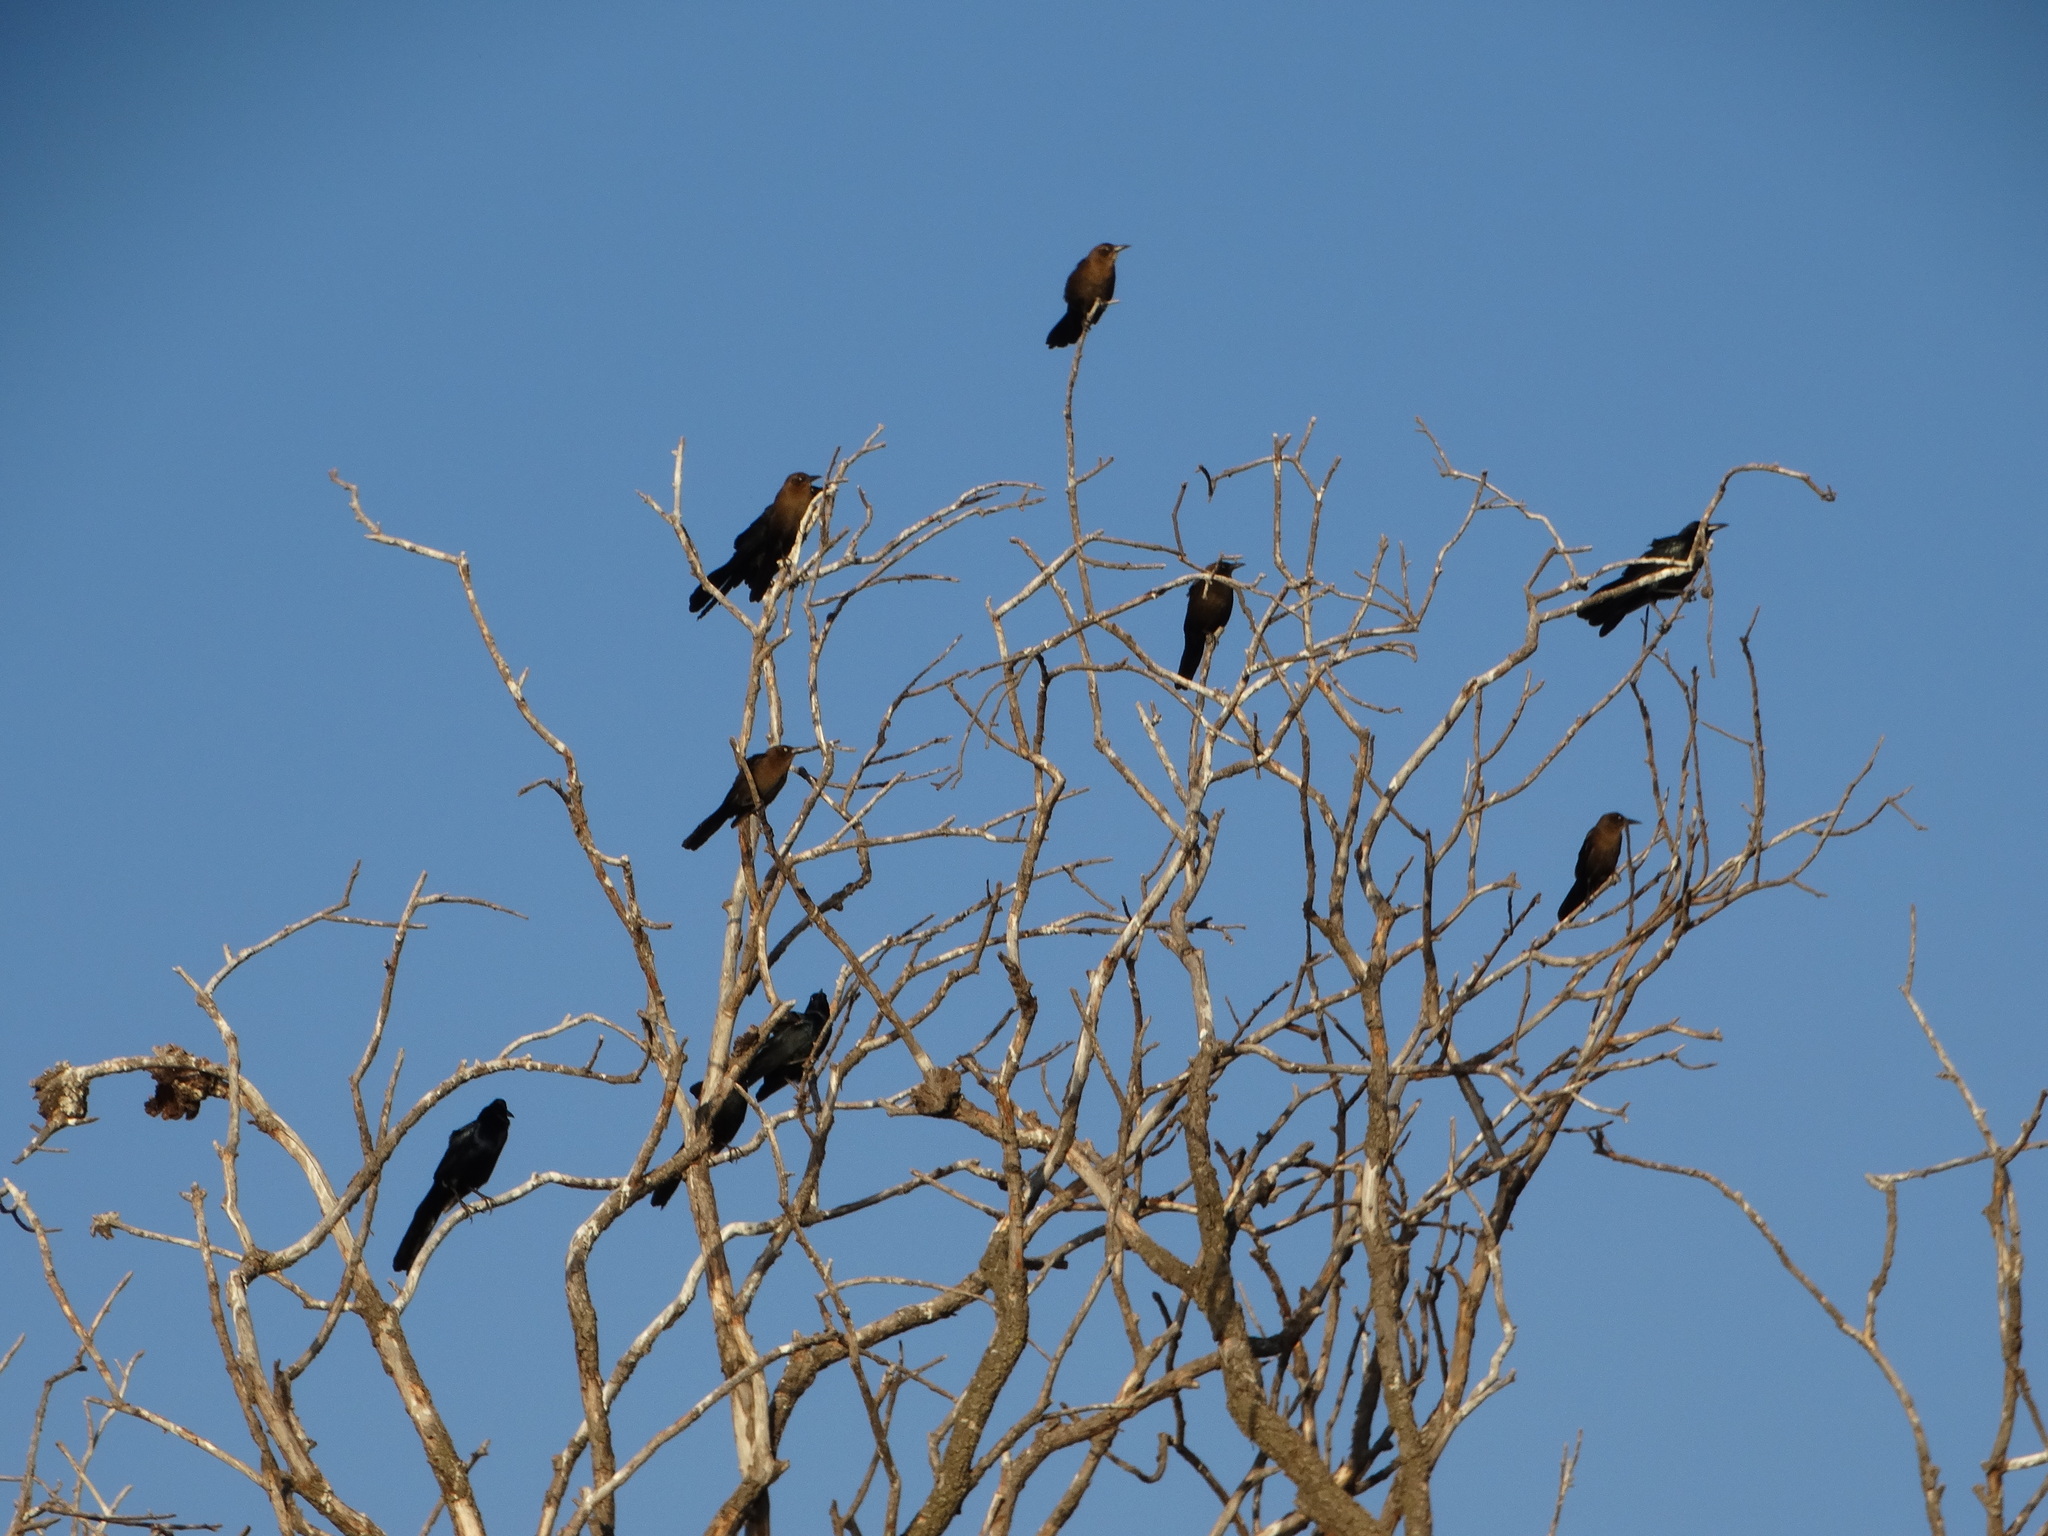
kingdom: Animalia
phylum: Chordata
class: Aves
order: Passeriformes
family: Icteridae
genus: Quiscalus
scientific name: Quiscalus mexicanus
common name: Great-tailed grackle
